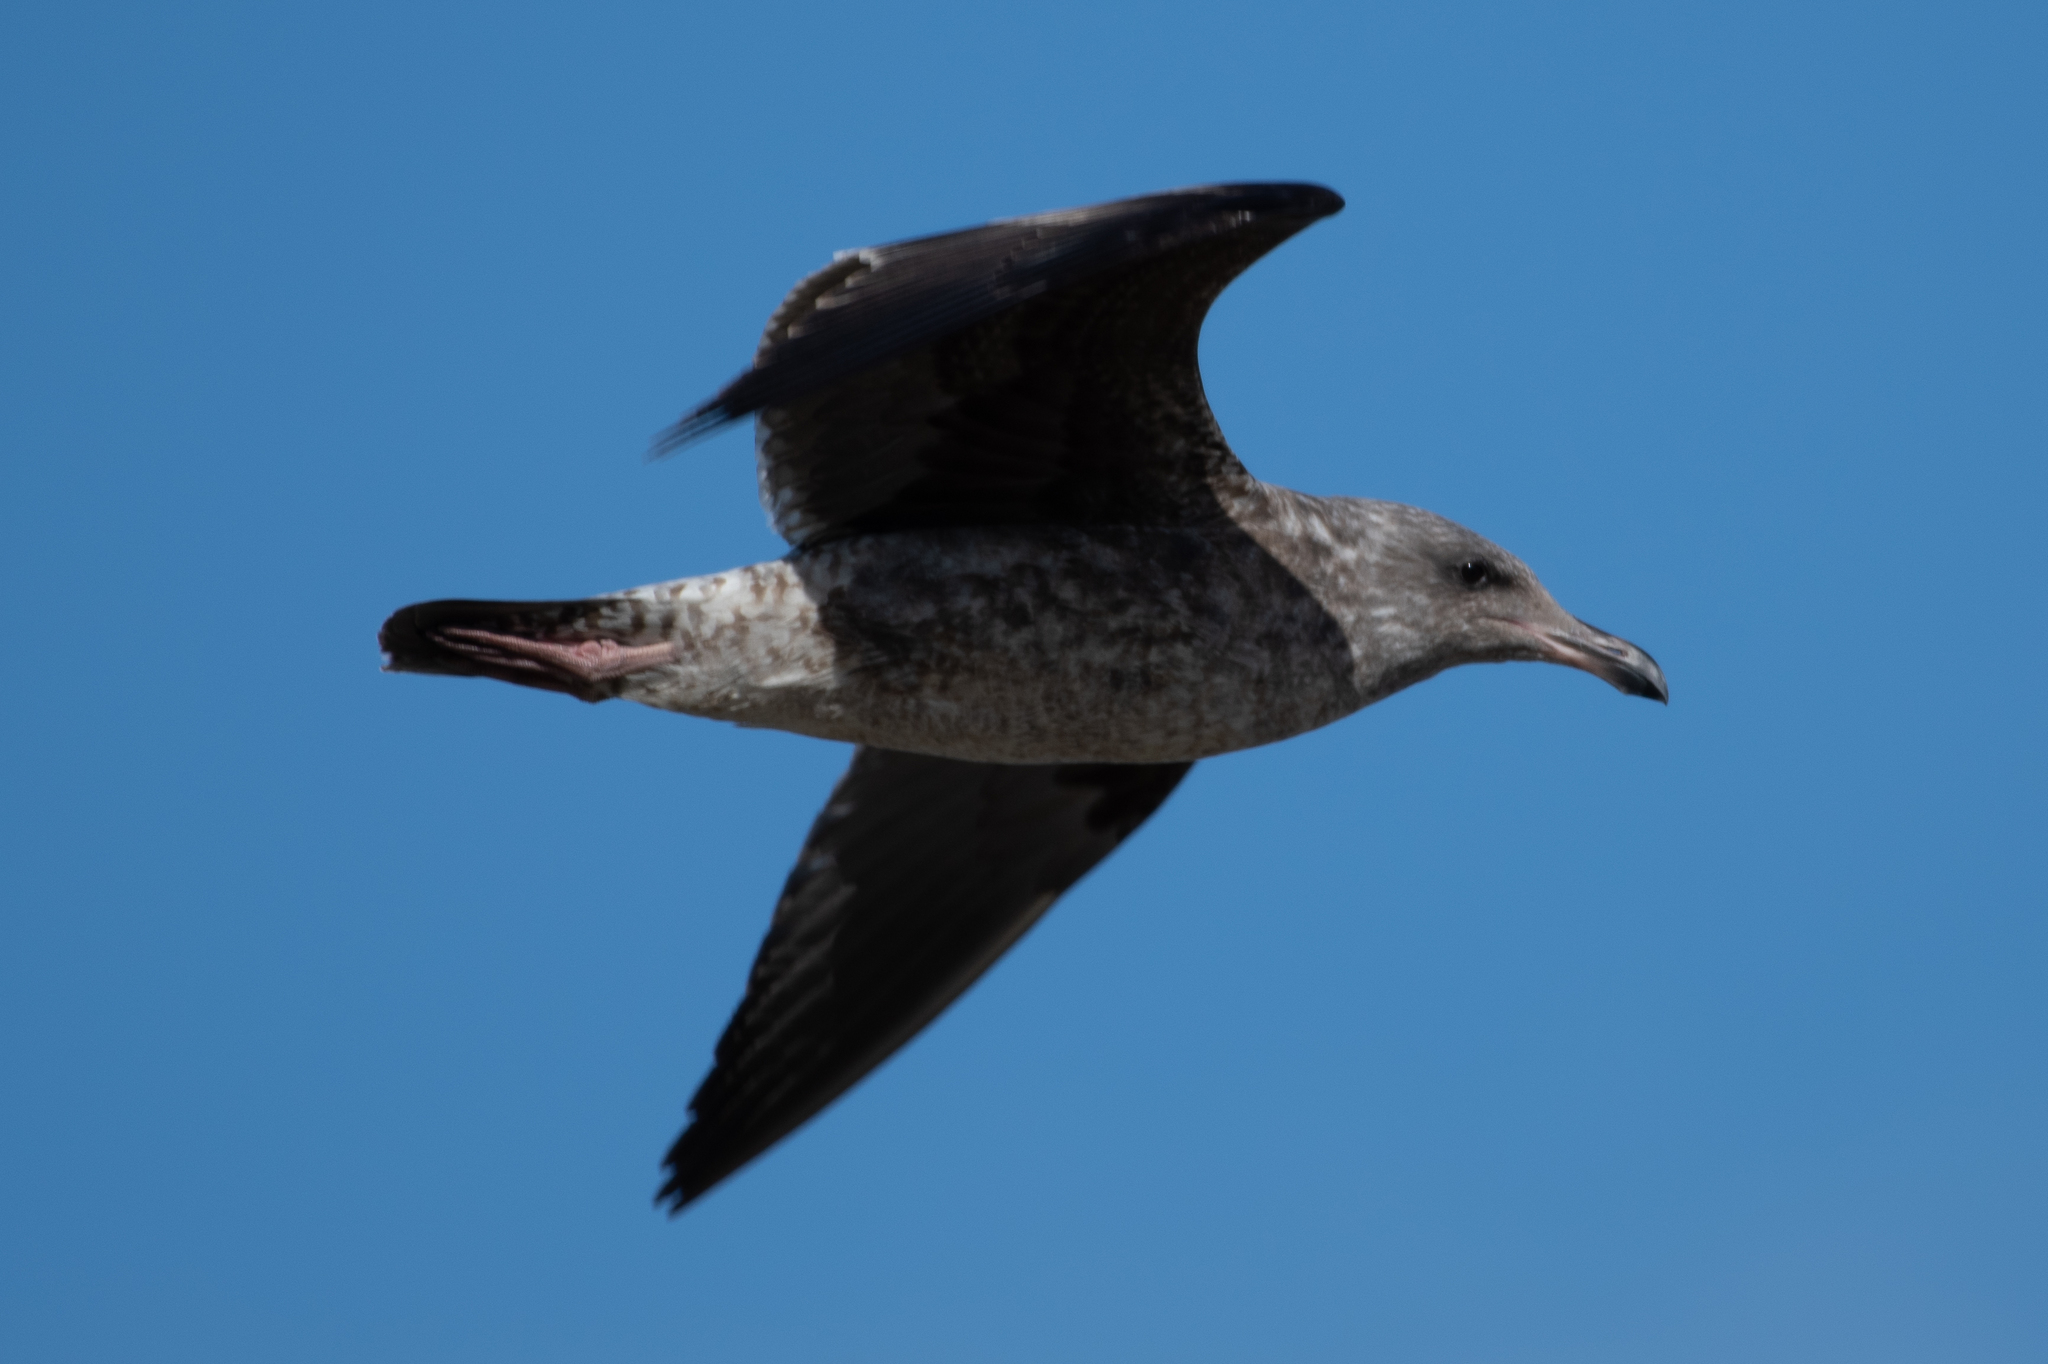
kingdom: Animalia
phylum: Chordata
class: Aves
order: Charadriiformes
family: Laridae
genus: Larus
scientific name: Larus occidentalis
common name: Western gull
